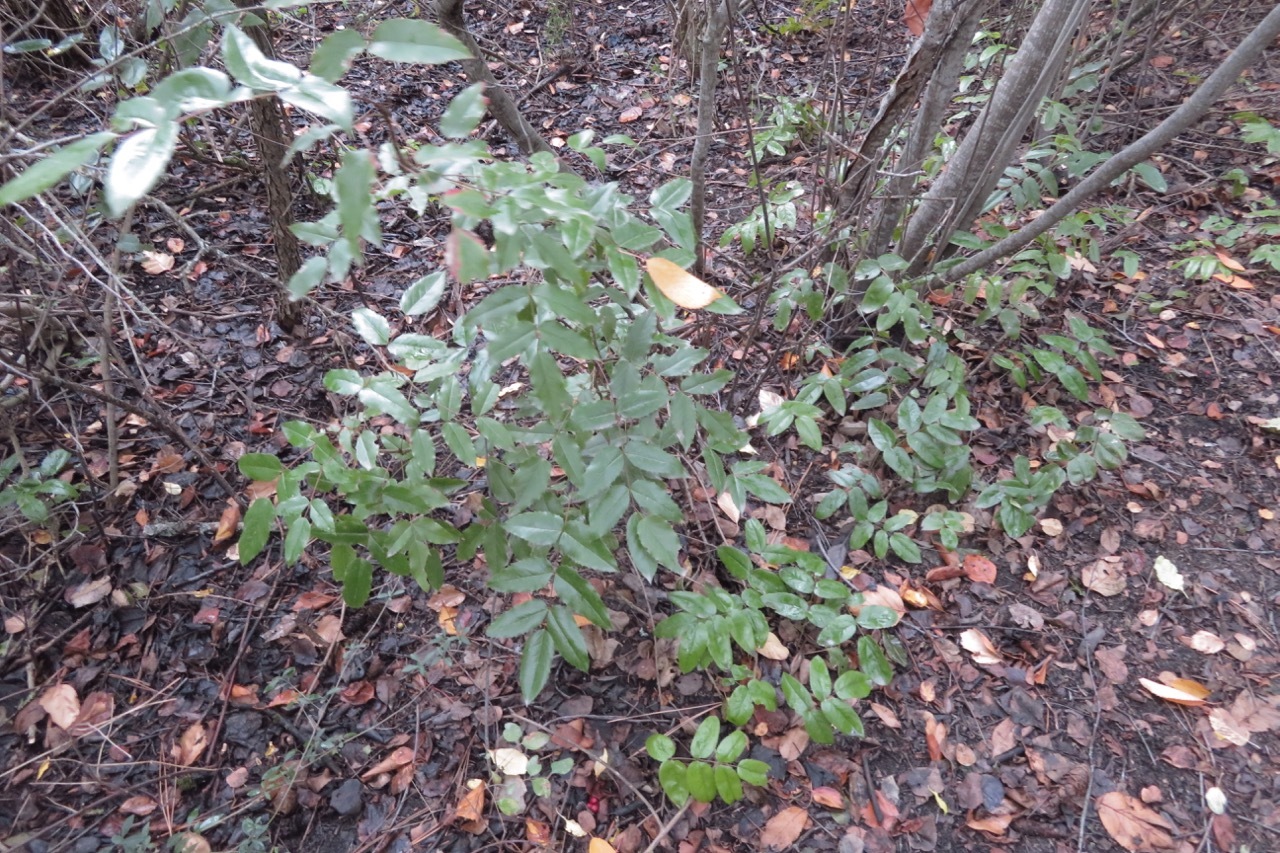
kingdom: Plantae
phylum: Tracheophyta
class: Magnoliopsida
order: Ranunculales
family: Berberidaceae
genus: Mahonia
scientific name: Mahonia aquifolium
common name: Oregon-grape
